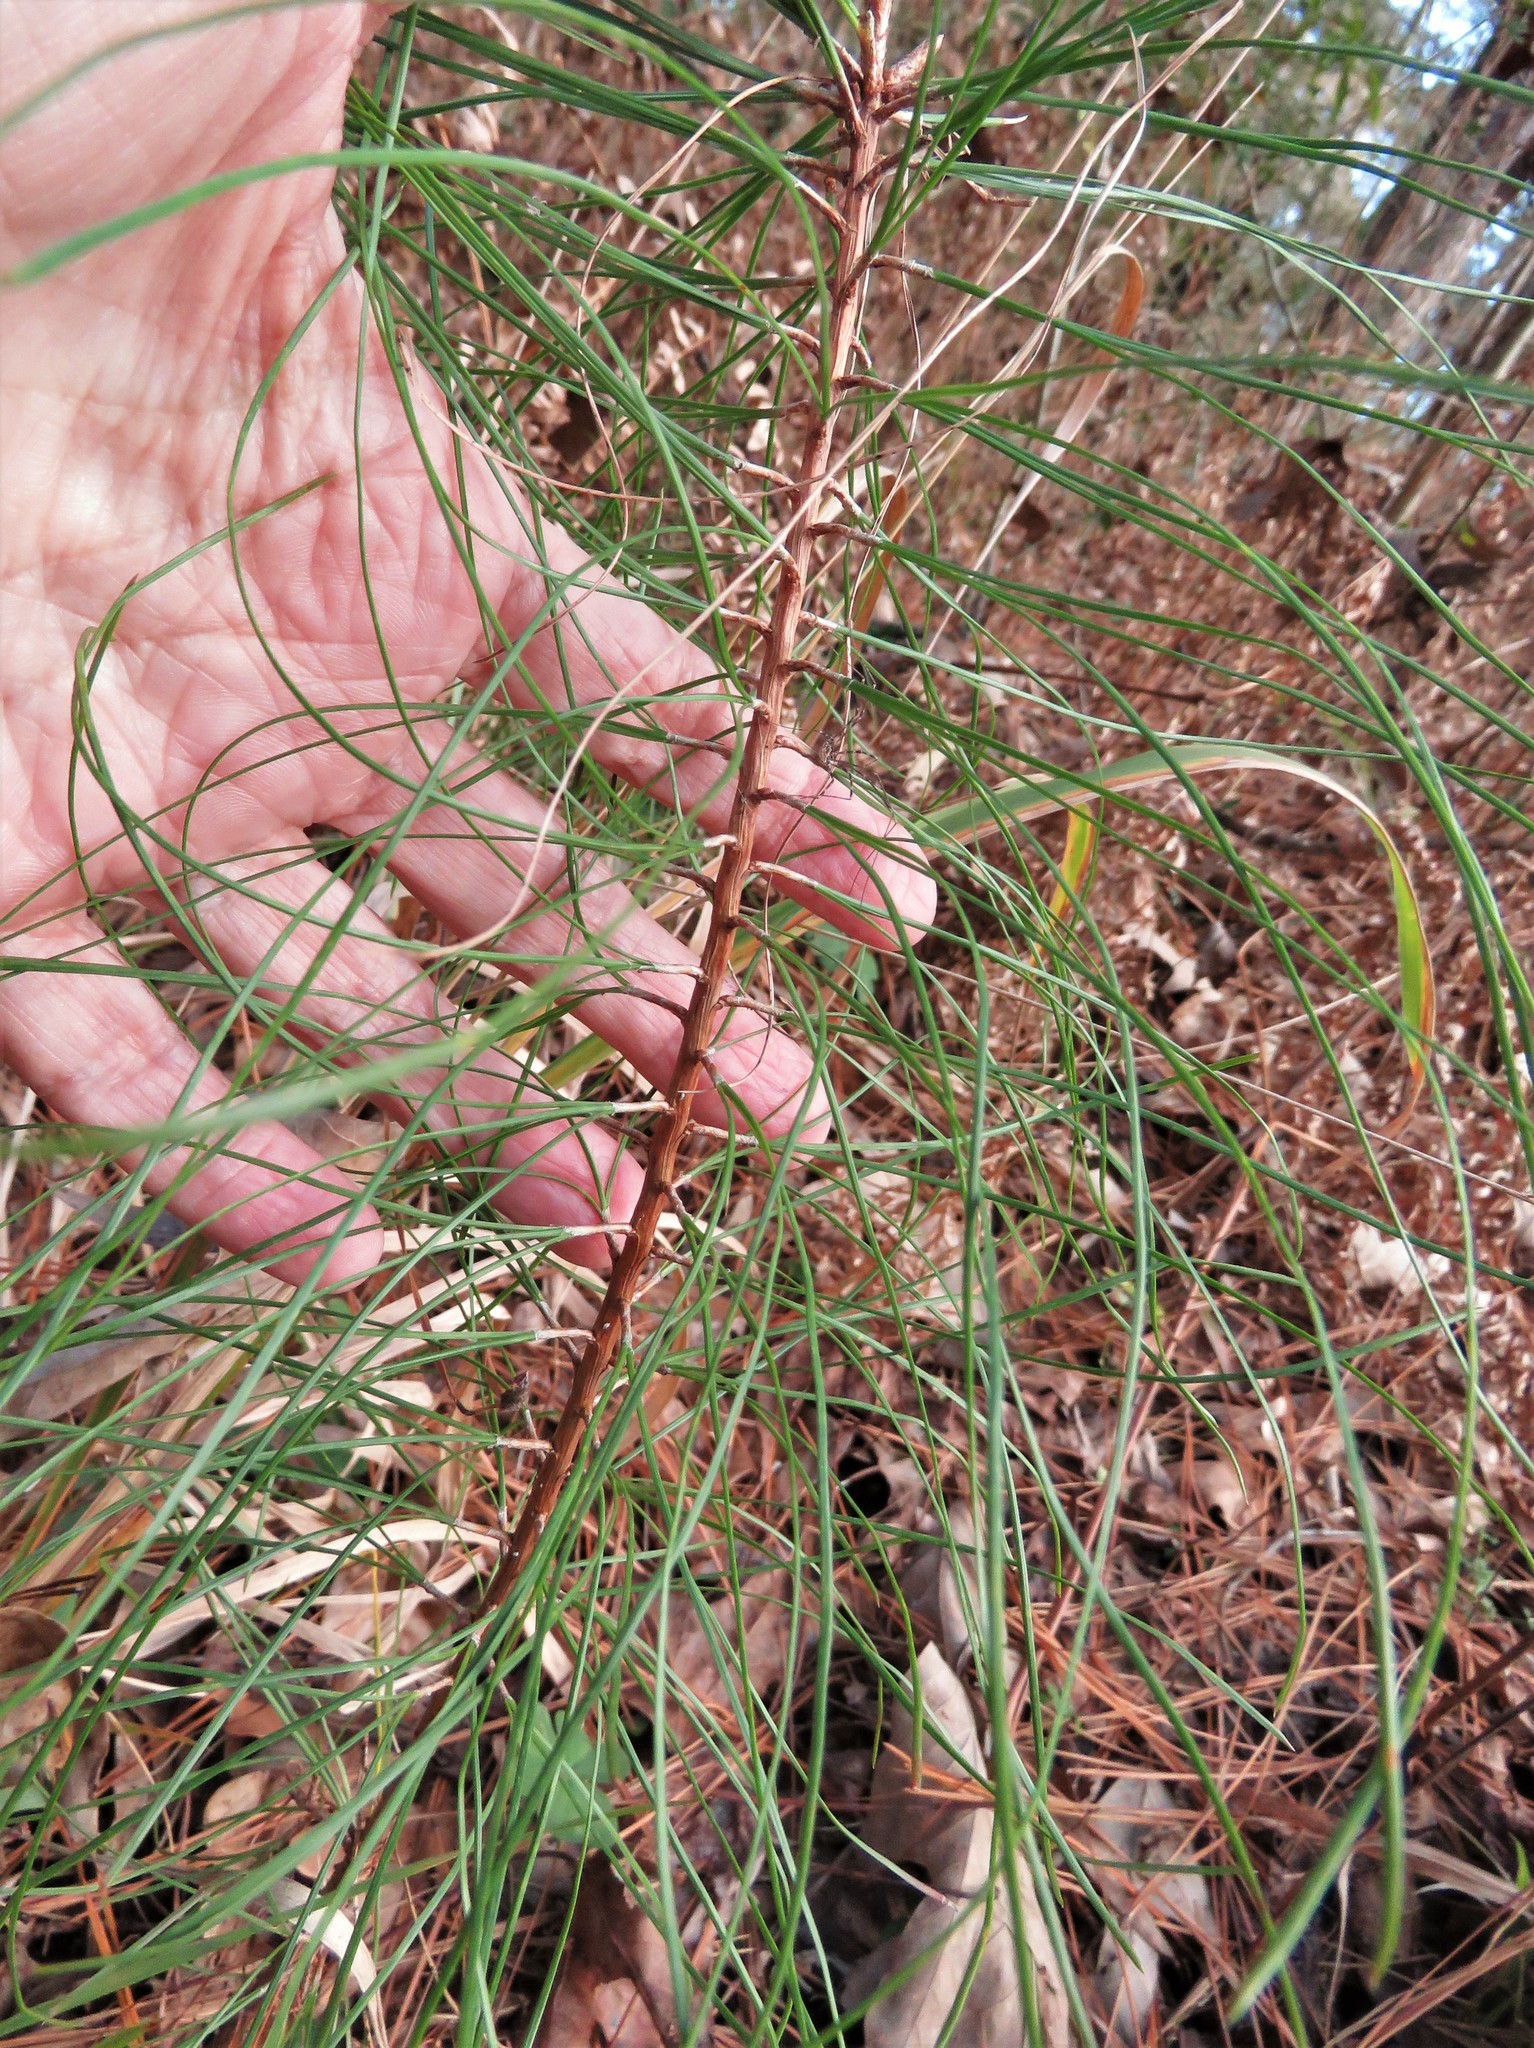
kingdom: Plantae
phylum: Tracheophyta
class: Pinopsida
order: Pinales
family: Pinaceae
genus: Pinus
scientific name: Pinus taeda
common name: Loblolly pine
